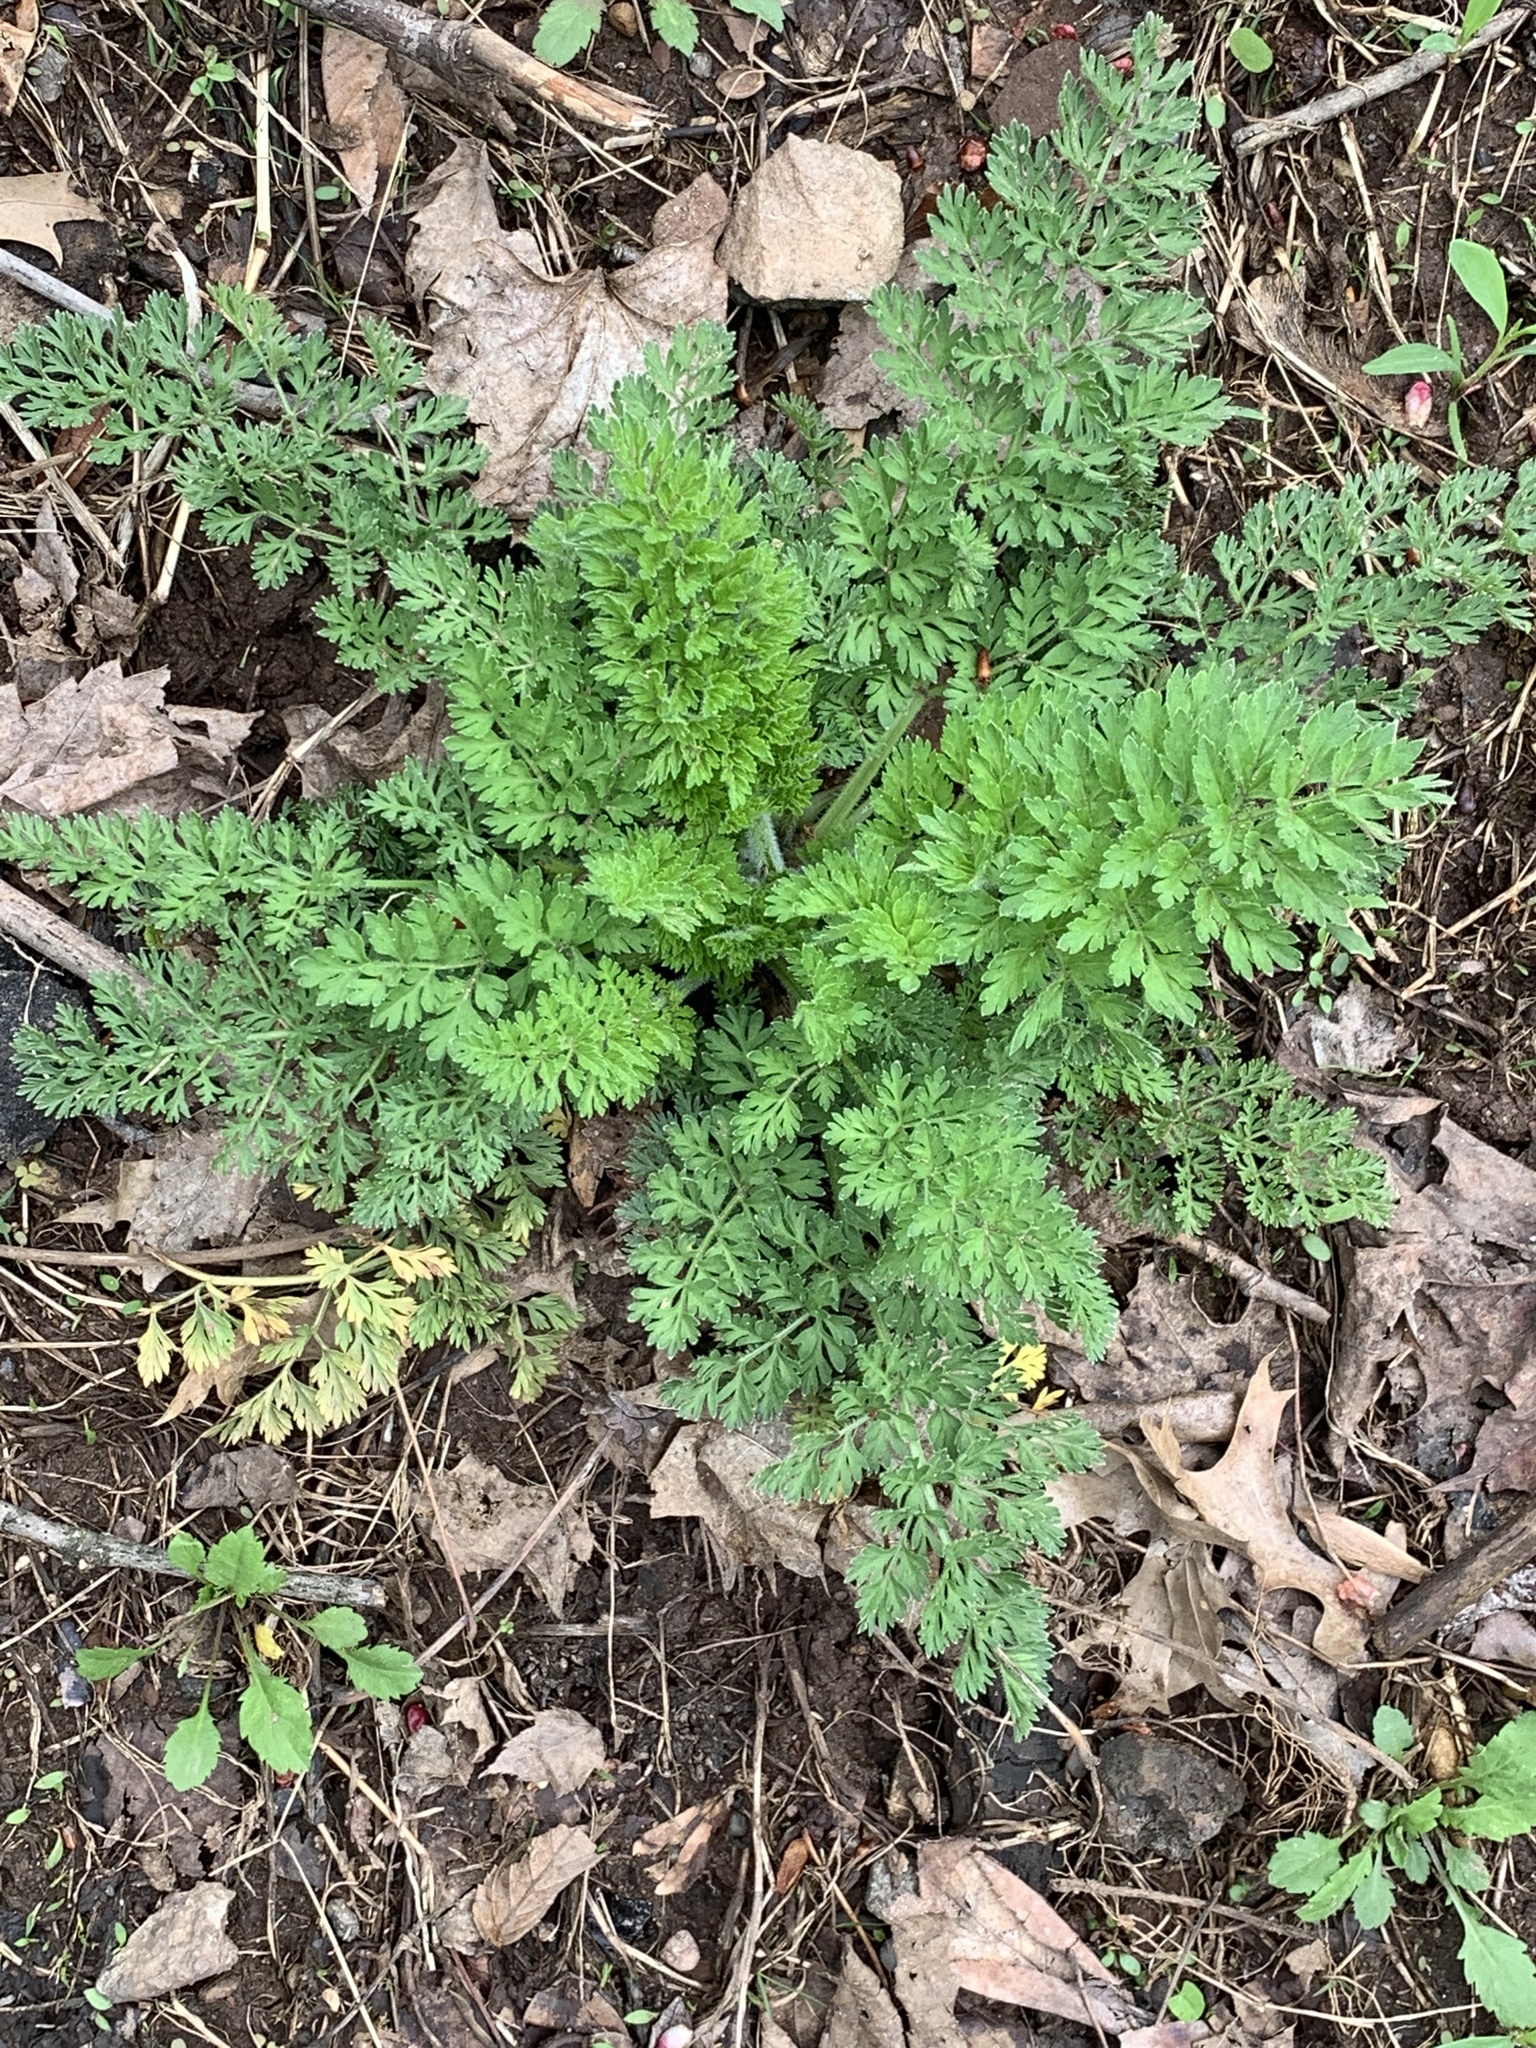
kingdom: Plantae
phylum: Tracheophyta
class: Magnoliopsida
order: Apiales
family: Apiaceae
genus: Daucus
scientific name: Daucus carota
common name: Wild carrot
